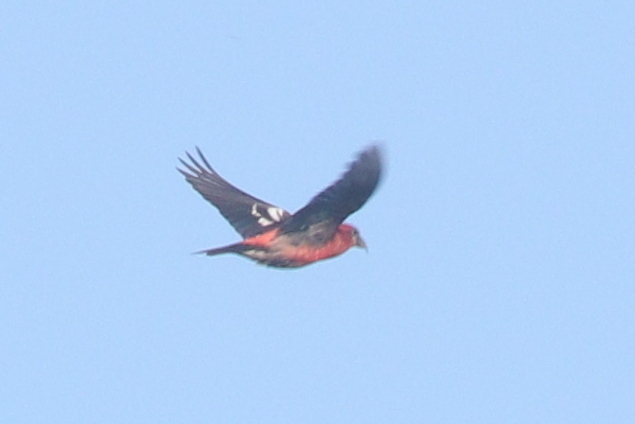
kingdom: Animalia
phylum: Chordata
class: Aves
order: Passeriformes
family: Fringillidae
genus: Loxia
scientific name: Loxia leucoptera
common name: Two-barred crossbill
